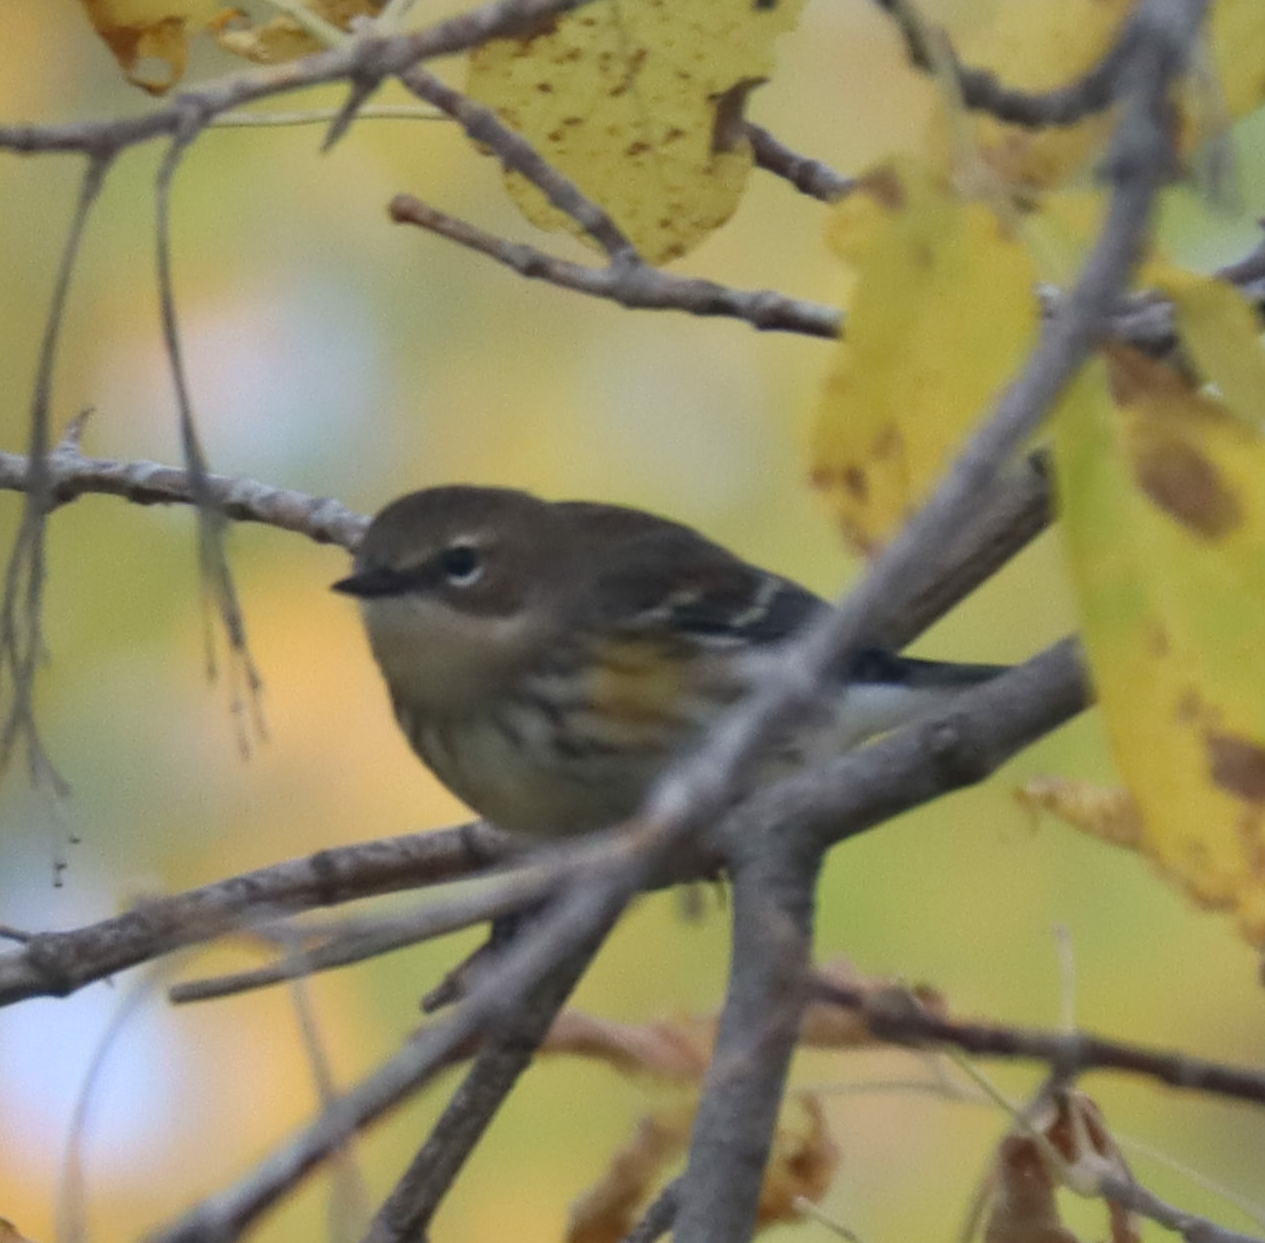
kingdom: Animalia
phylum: Chordata
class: Aves
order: Passeriformes
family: Parulidae
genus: Setophaga
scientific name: Setophaga coronata
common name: Myrtle warbler
